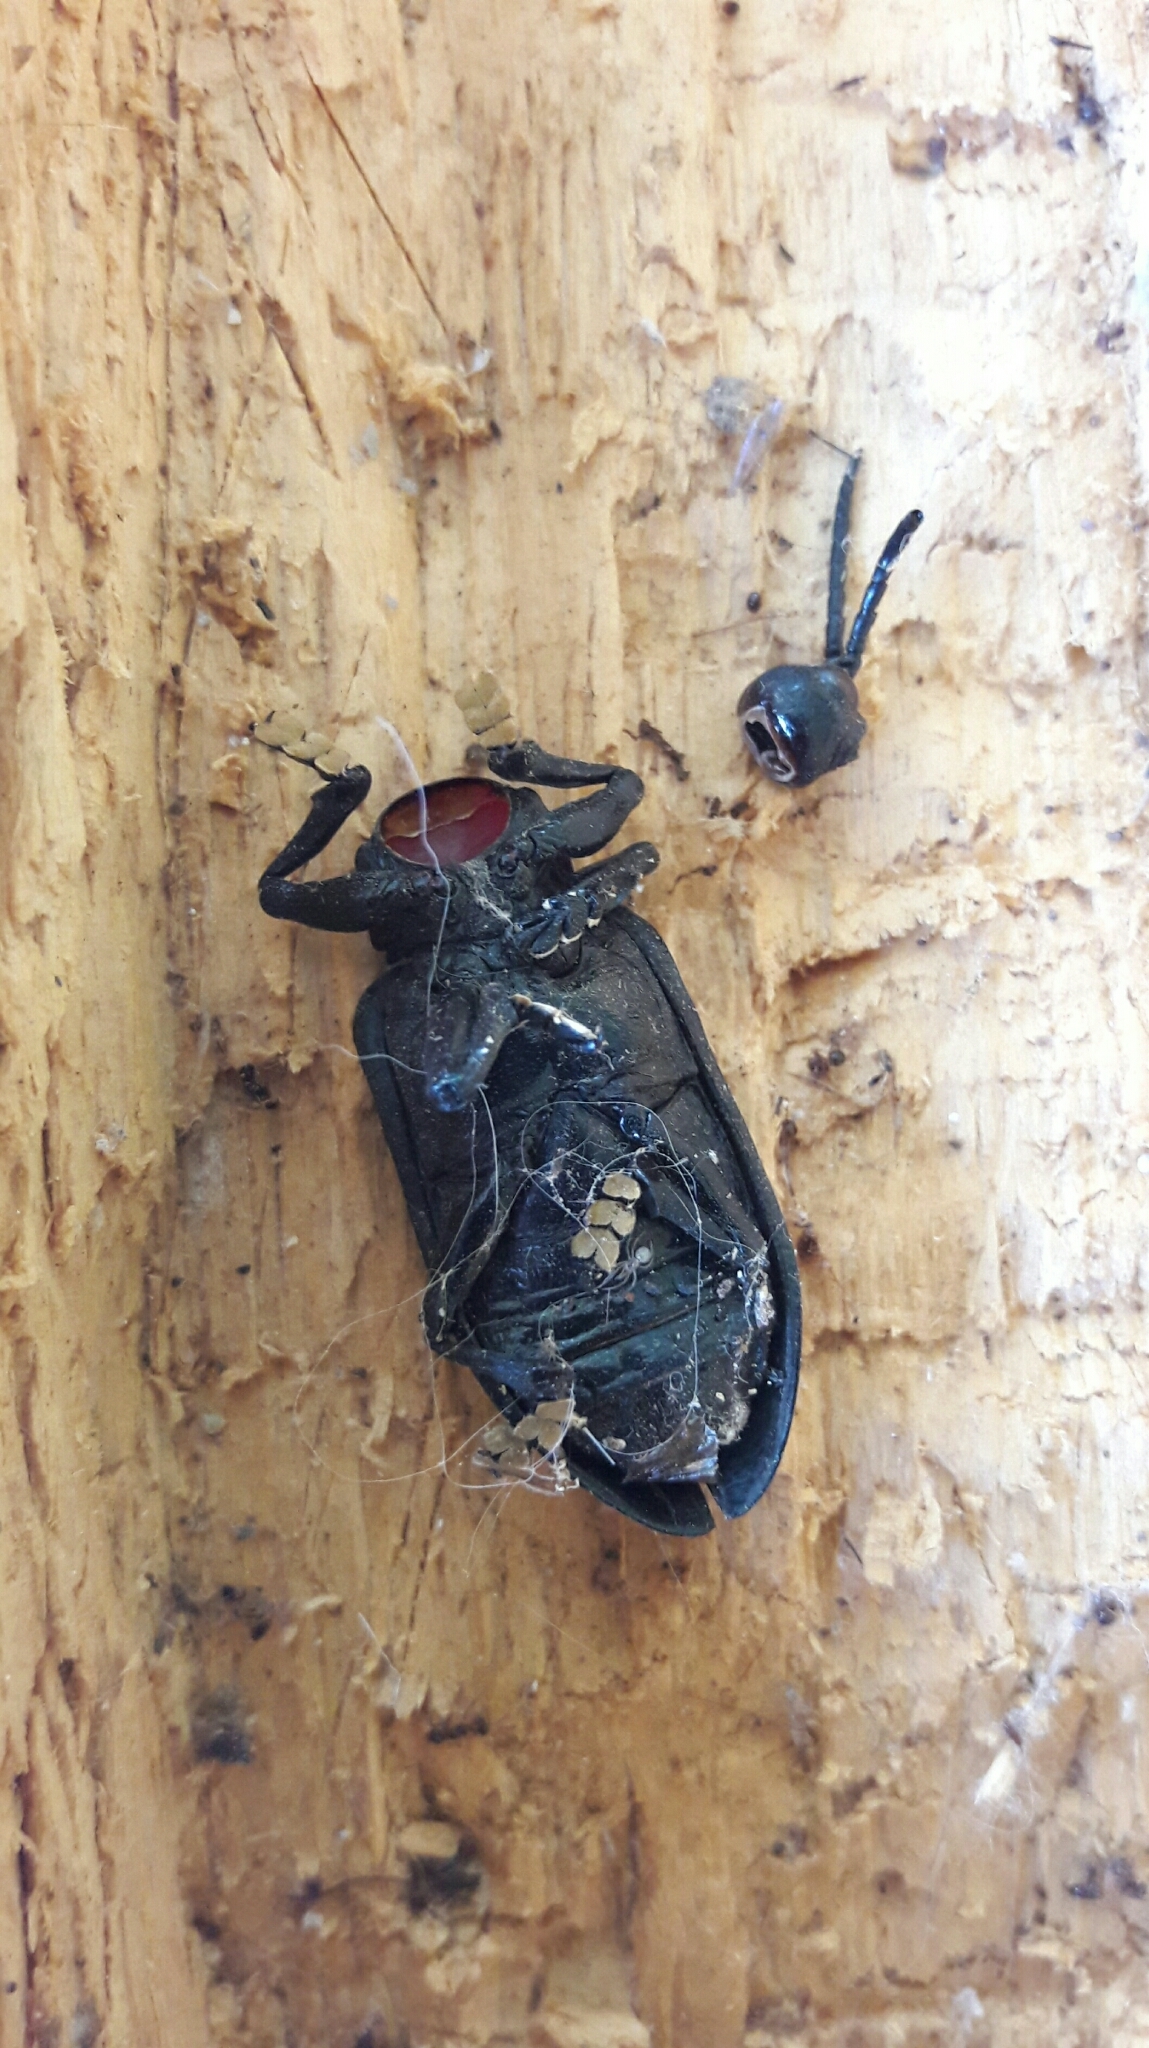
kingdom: Animalia
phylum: Arthropoda
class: Insecta
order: Coleoptera
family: Chrysomelidae
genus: Coraliomela
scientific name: Coraliomela brunnea
